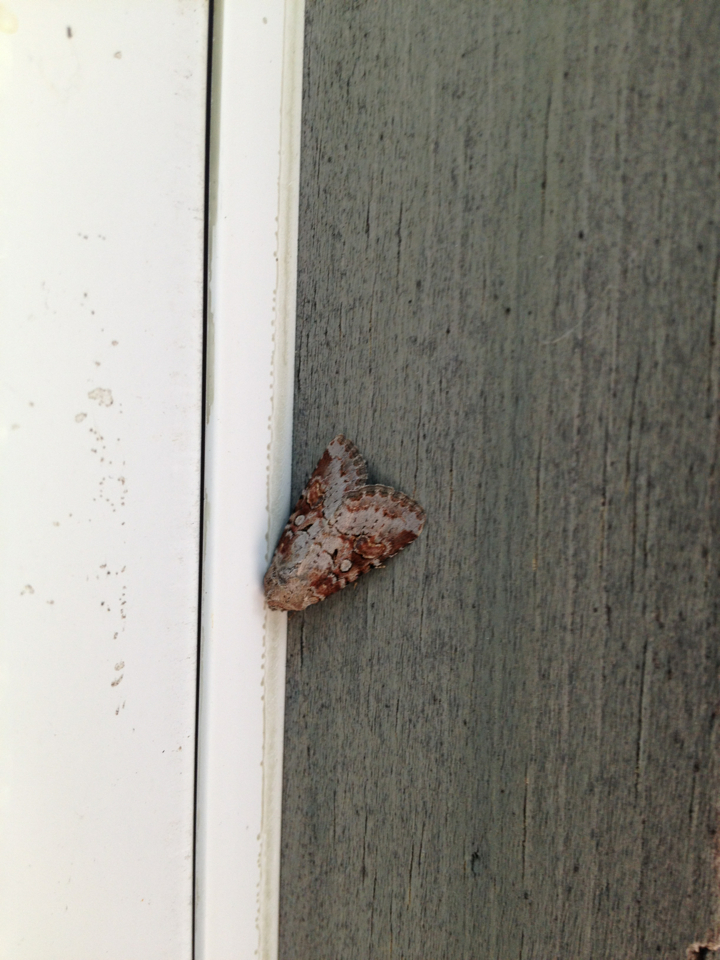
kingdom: Animalia
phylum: Arthropoda
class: Insecta
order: Lepidoptera
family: Noctuidae
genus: Trichordestra
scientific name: Trichordestra legitima
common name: Striped garden caterpillar
